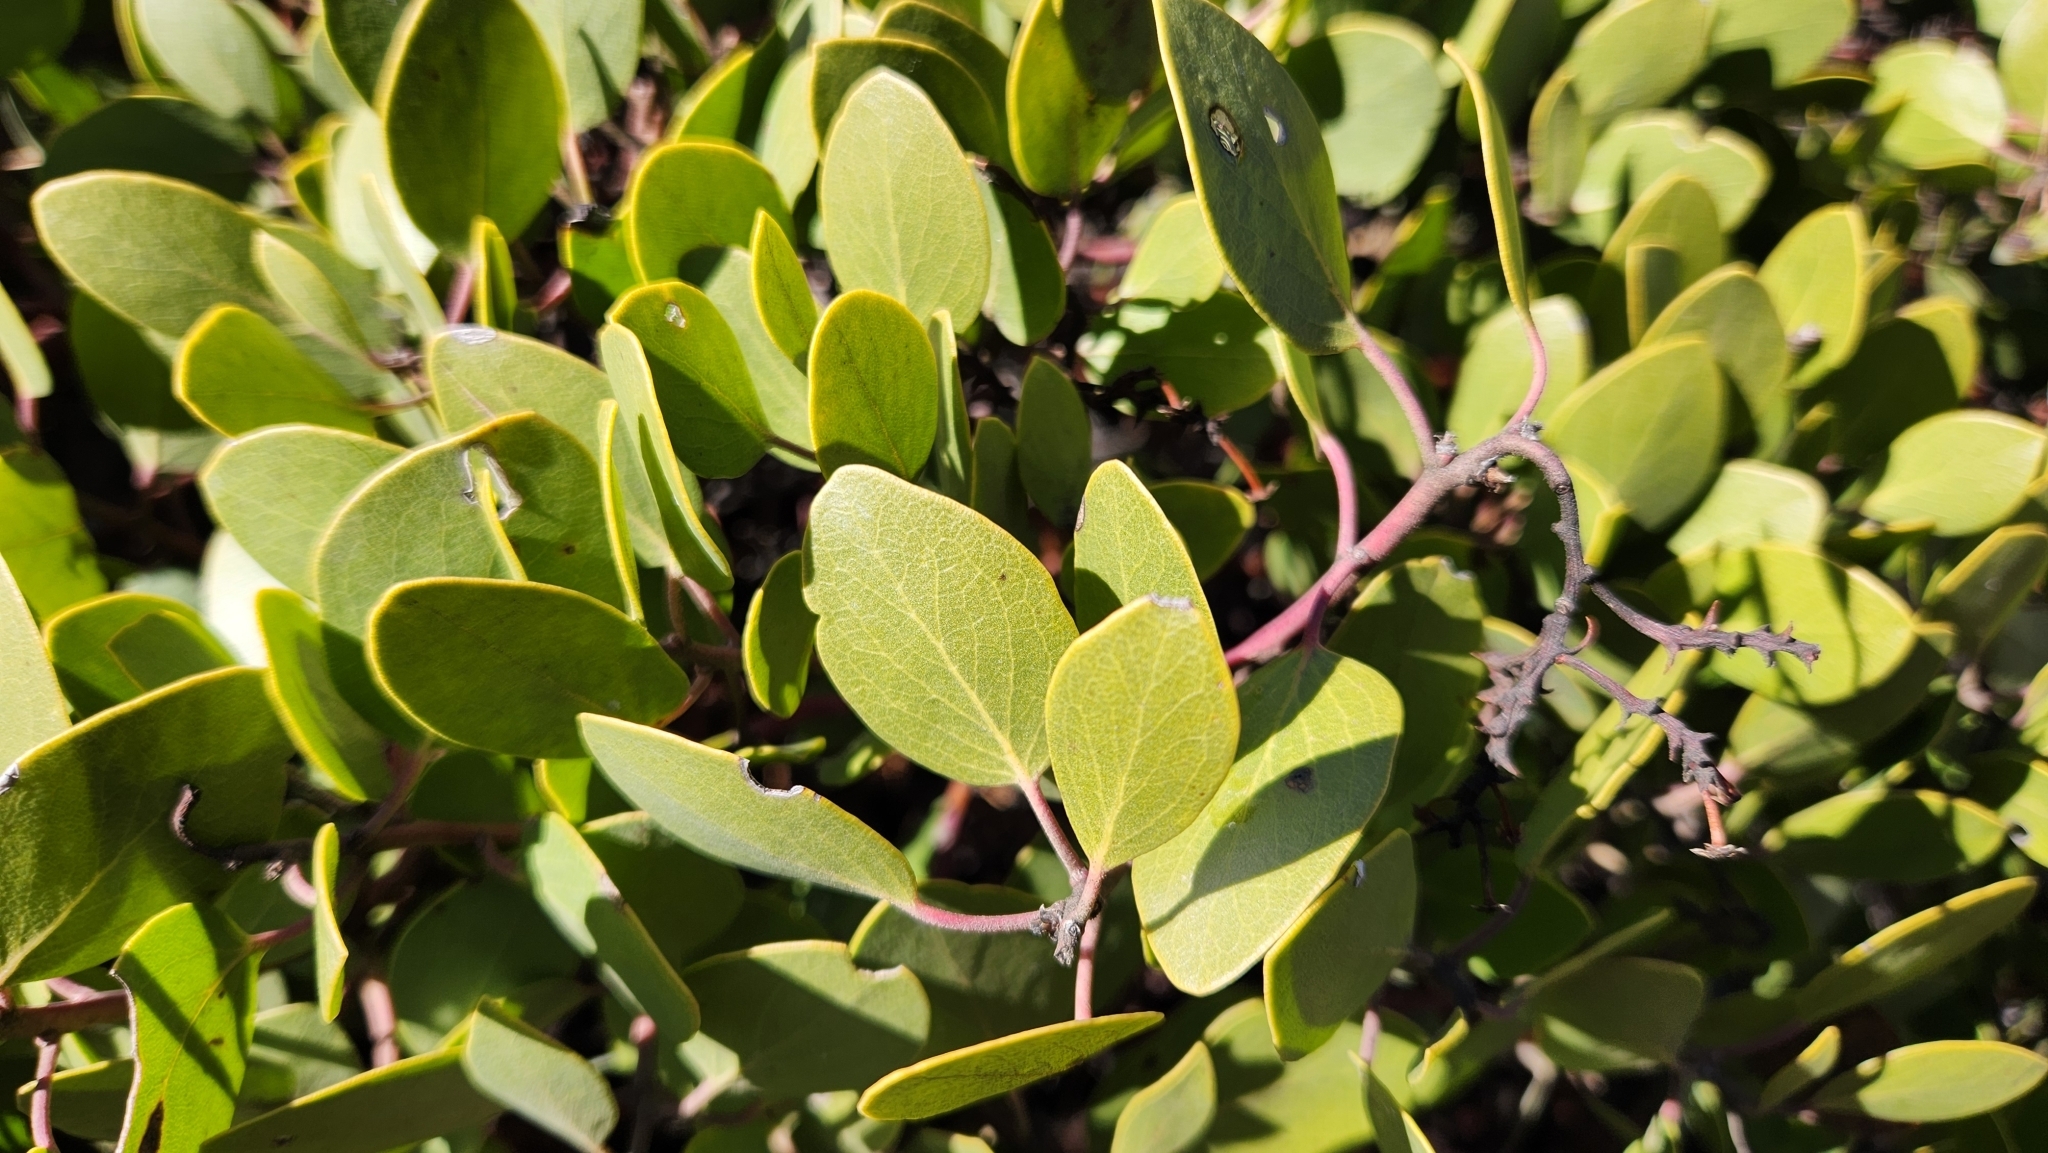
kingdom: Plantae
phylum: Tracheophyta
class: Magnoliopsida
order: Ericales
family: Ericaceae
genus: Arctostaphylos
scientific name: Arctostaphylos patula
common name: Green-leaf manzanita
